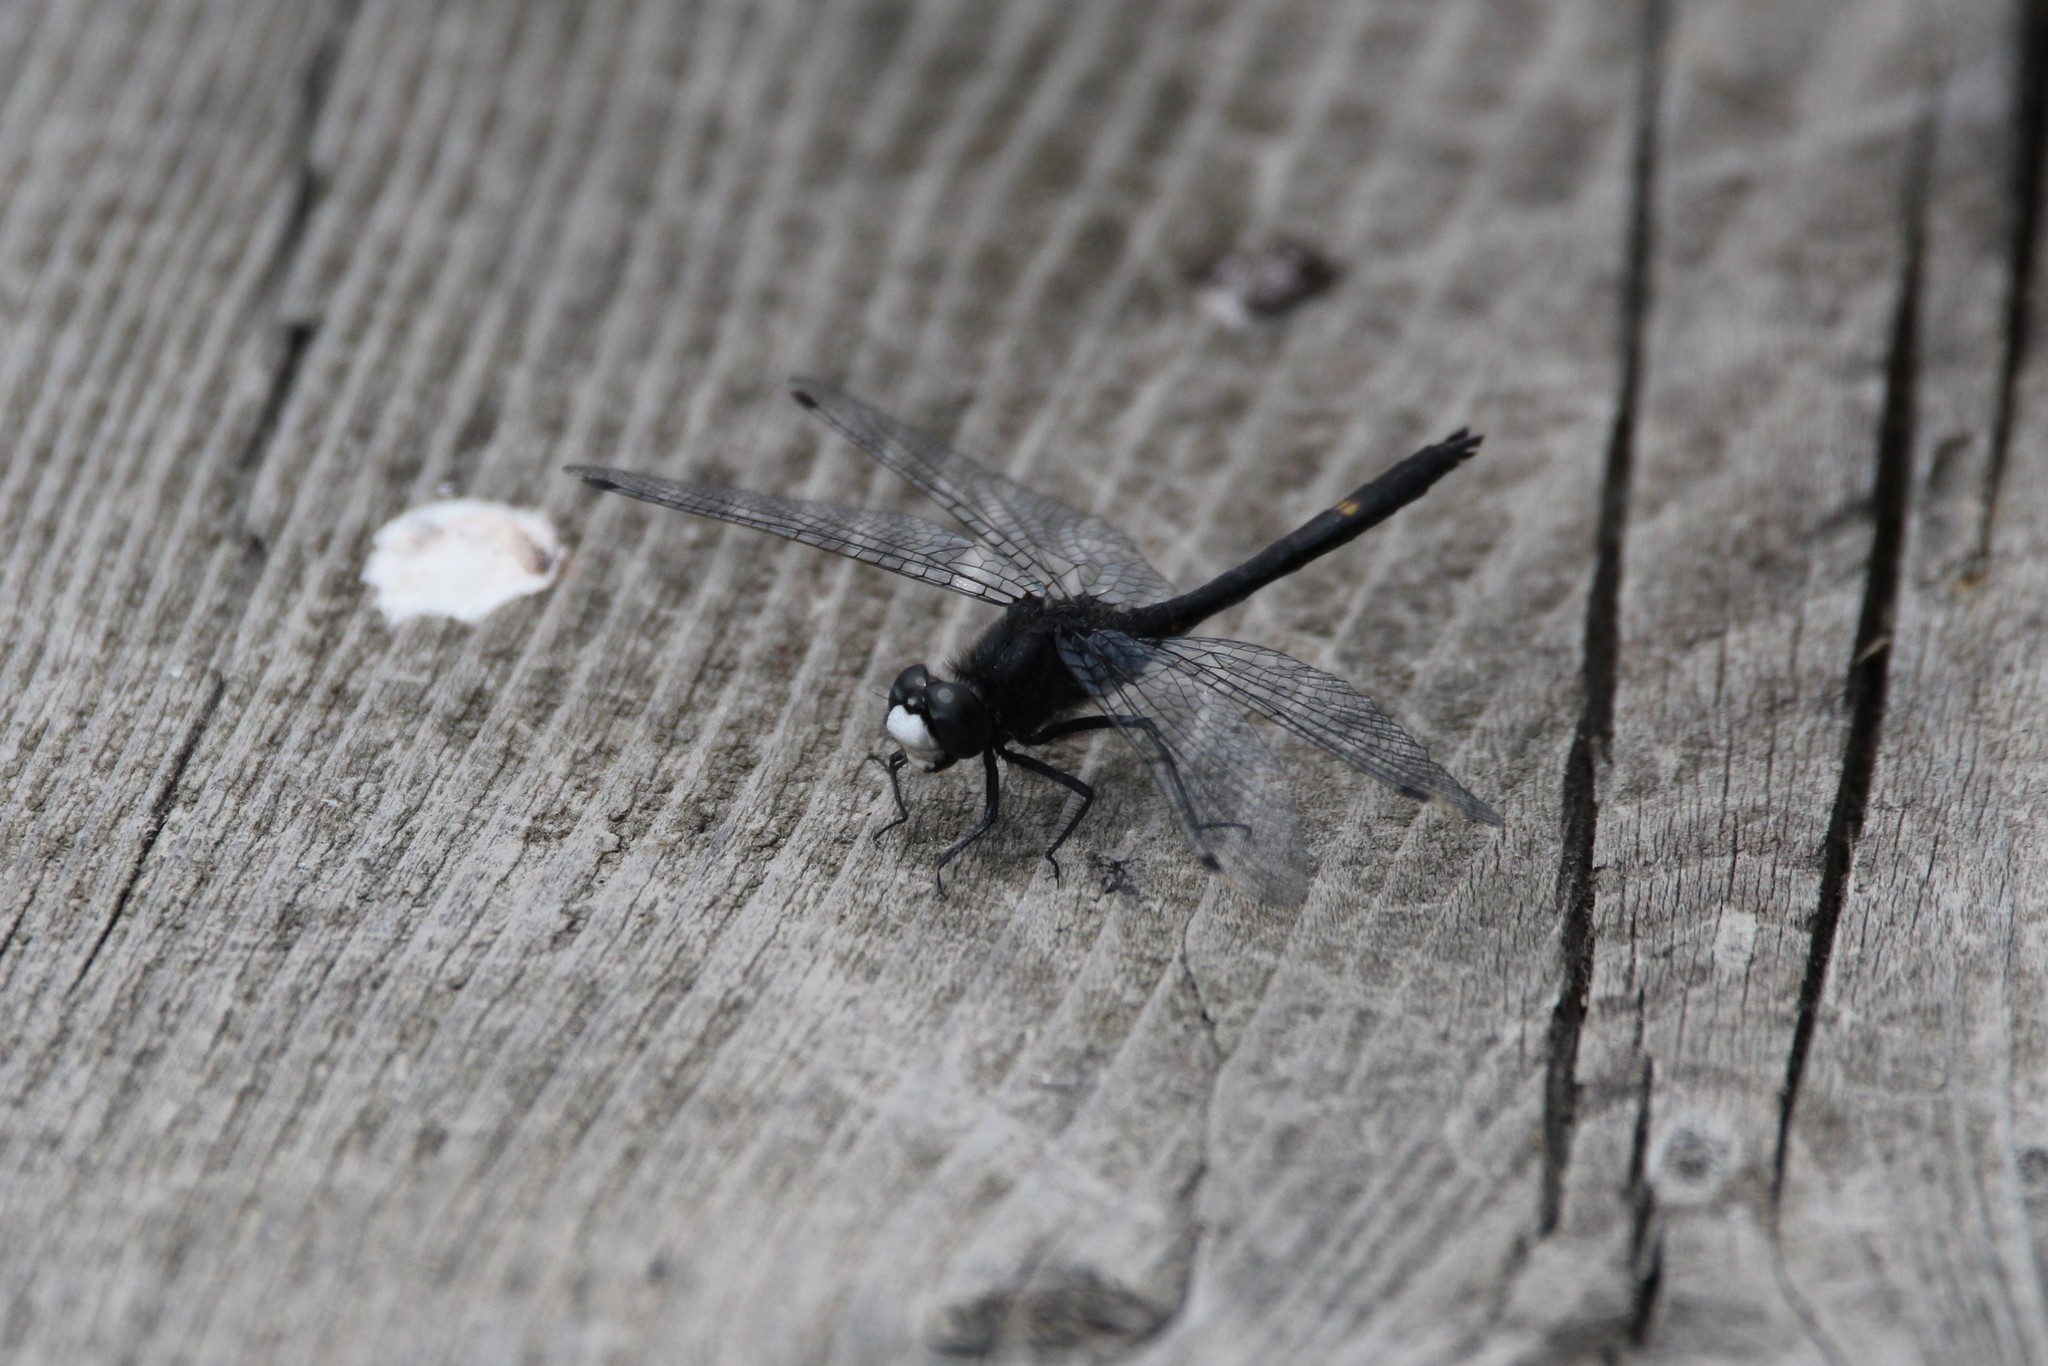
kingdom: Animalia
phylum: Arthropoda
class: Insecta
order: Odonata
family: Libellulidae
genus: Leucorrhinia
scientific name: Leucorrhinia intacta
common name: Dot-tailed whiteface
